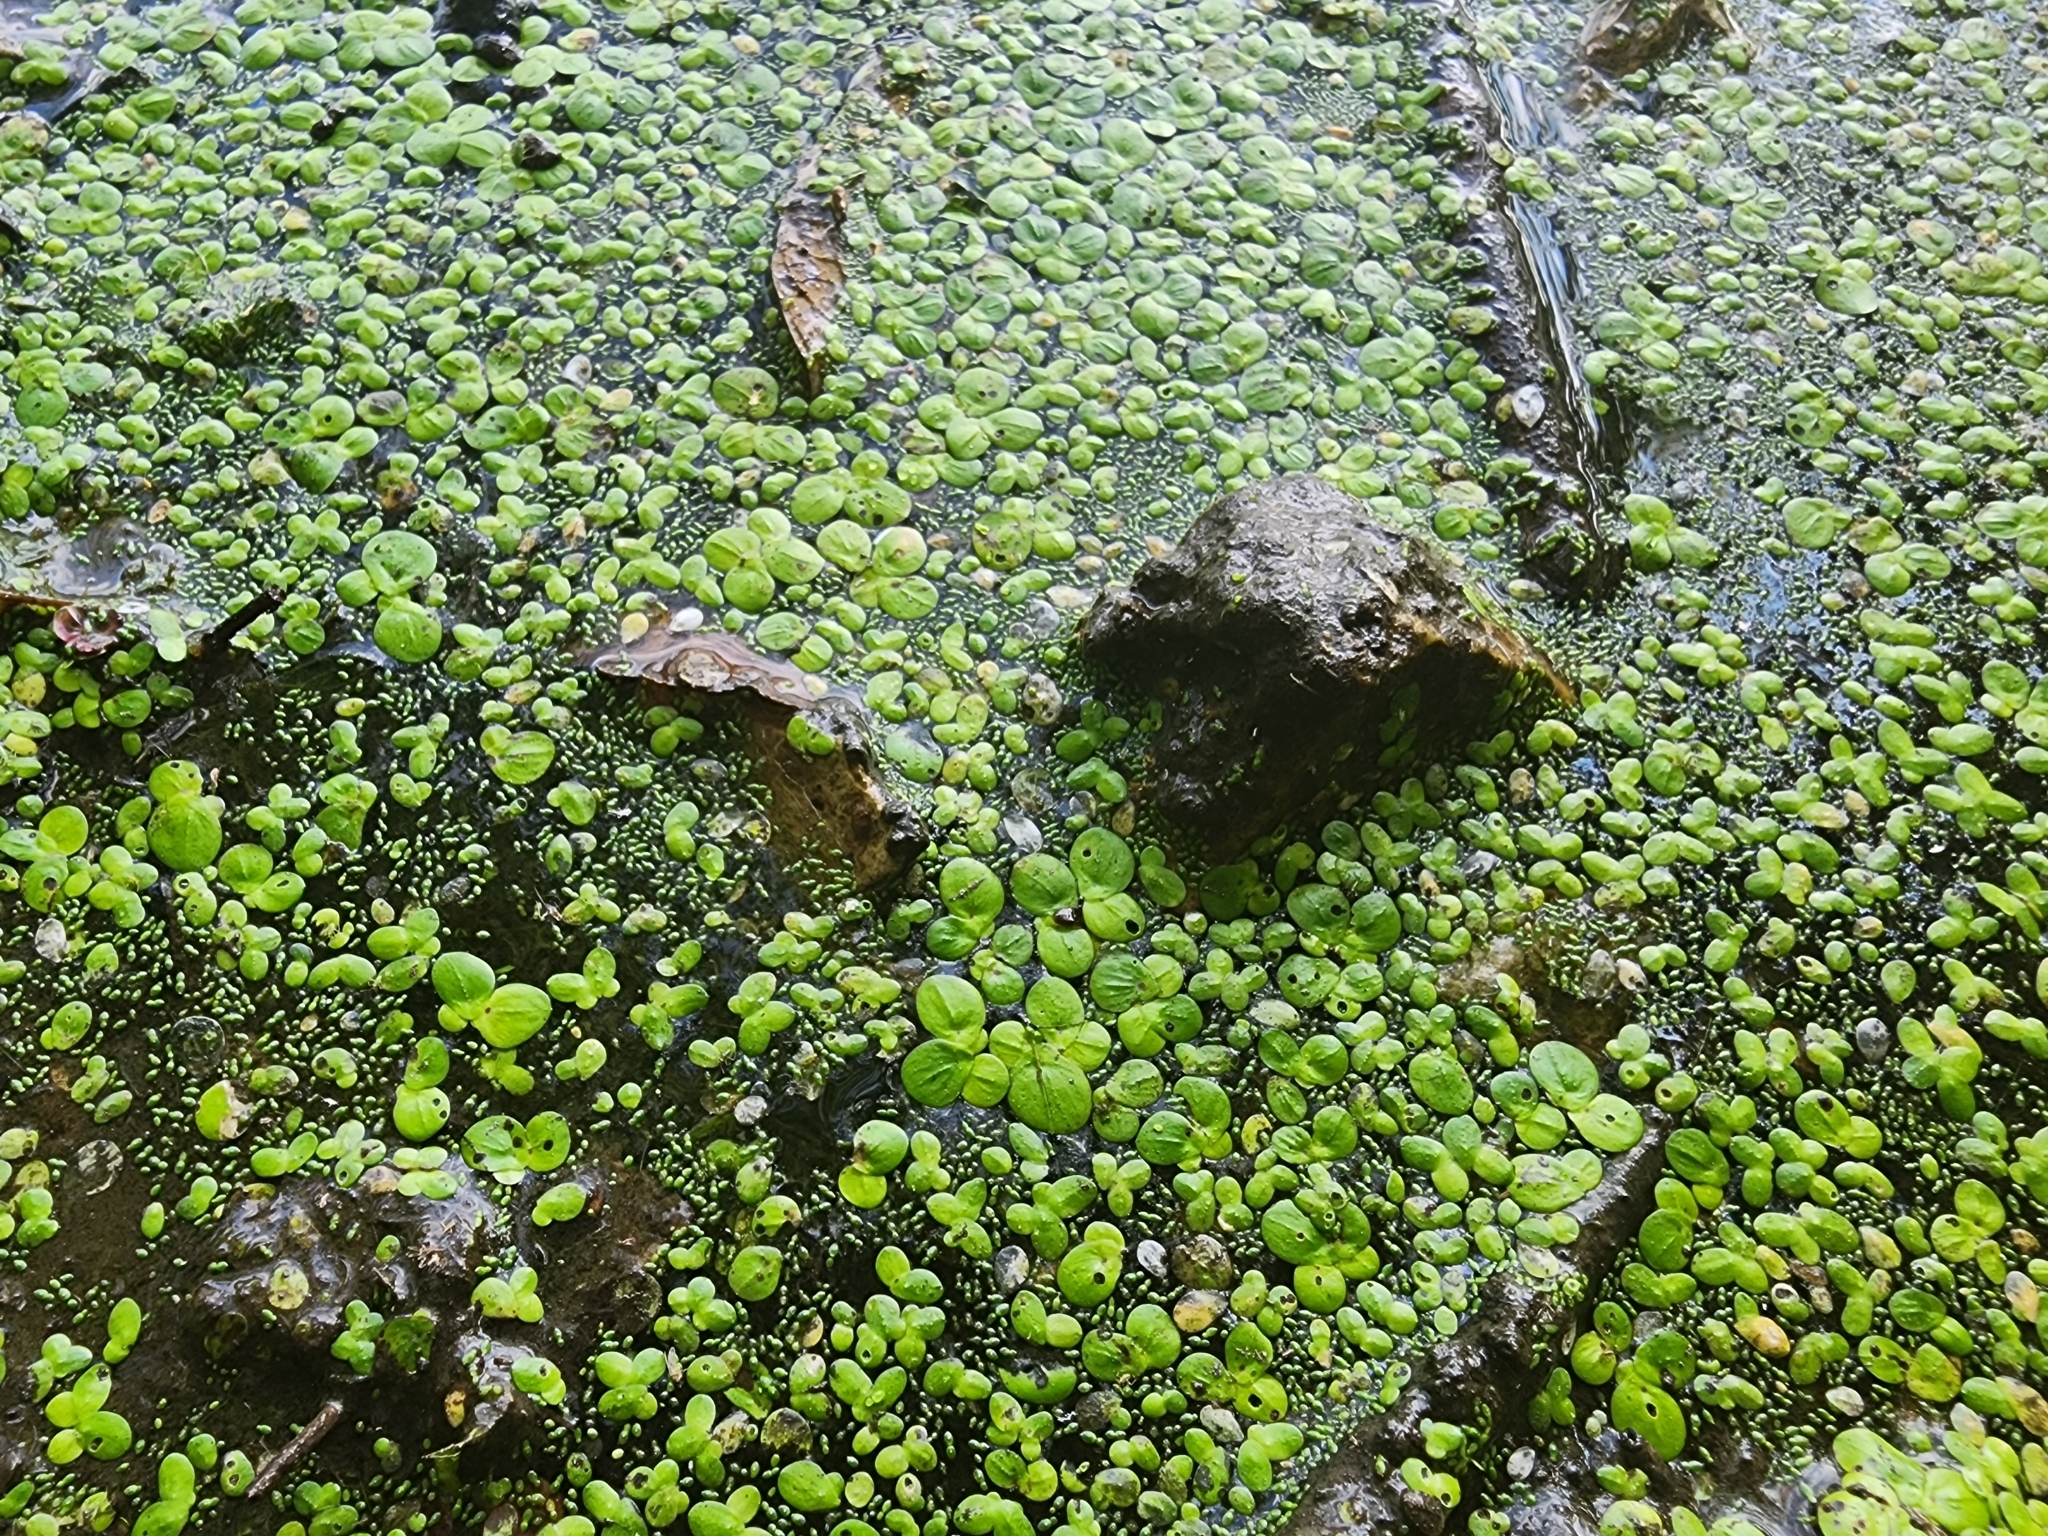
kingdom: Plantae
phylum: Tracheophyta
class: Liliopsida
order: Alismatales
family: Araceae
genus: Spirodela
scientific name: Spirodela polyrhiza
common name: Great duckweed
